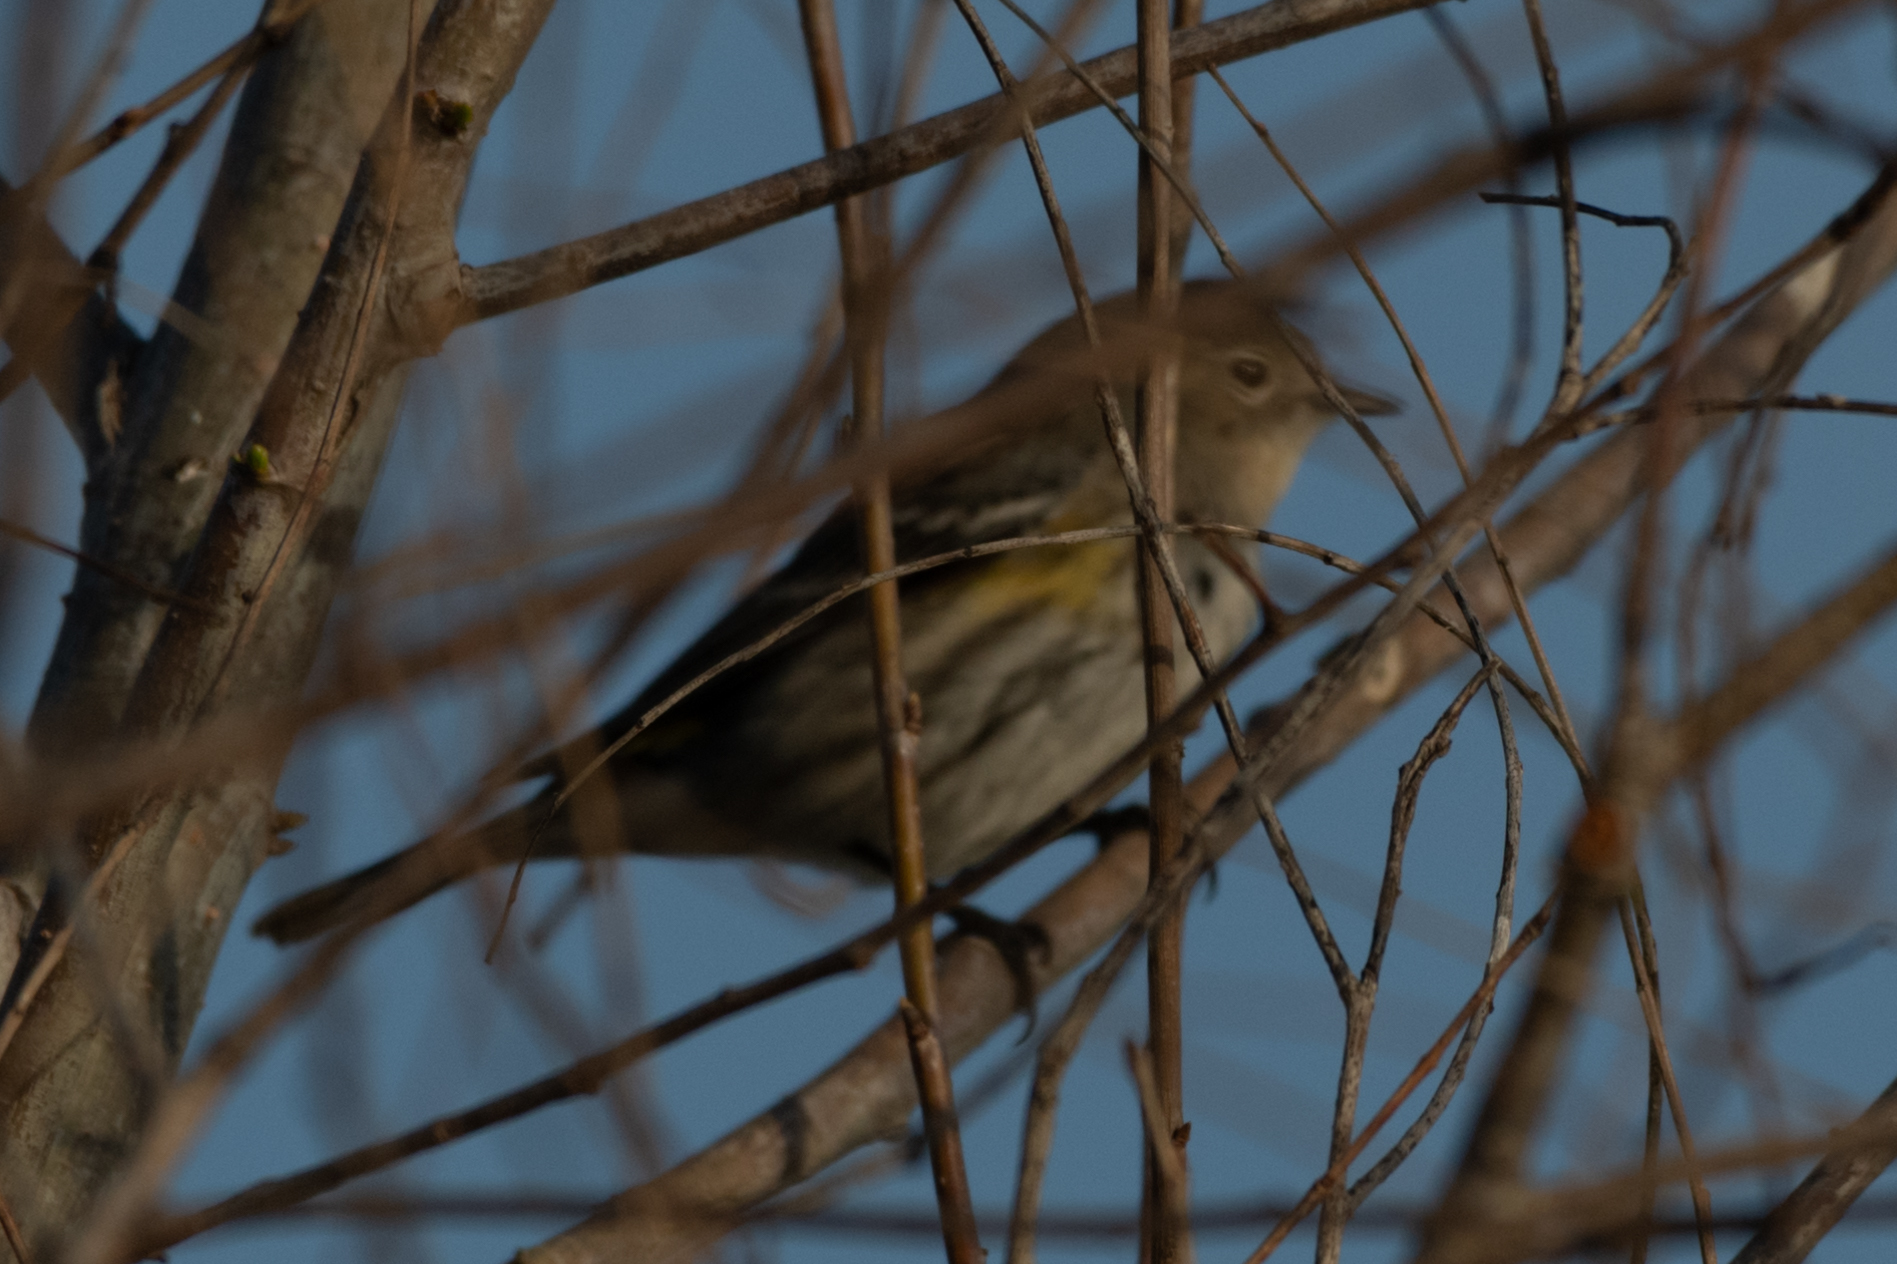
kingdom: Animalia
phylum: Chordata
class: Aves
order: Passeriformes
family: Parulidae
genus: Setophaga
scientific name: Setophaga coronata
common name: Myrtle warbler
